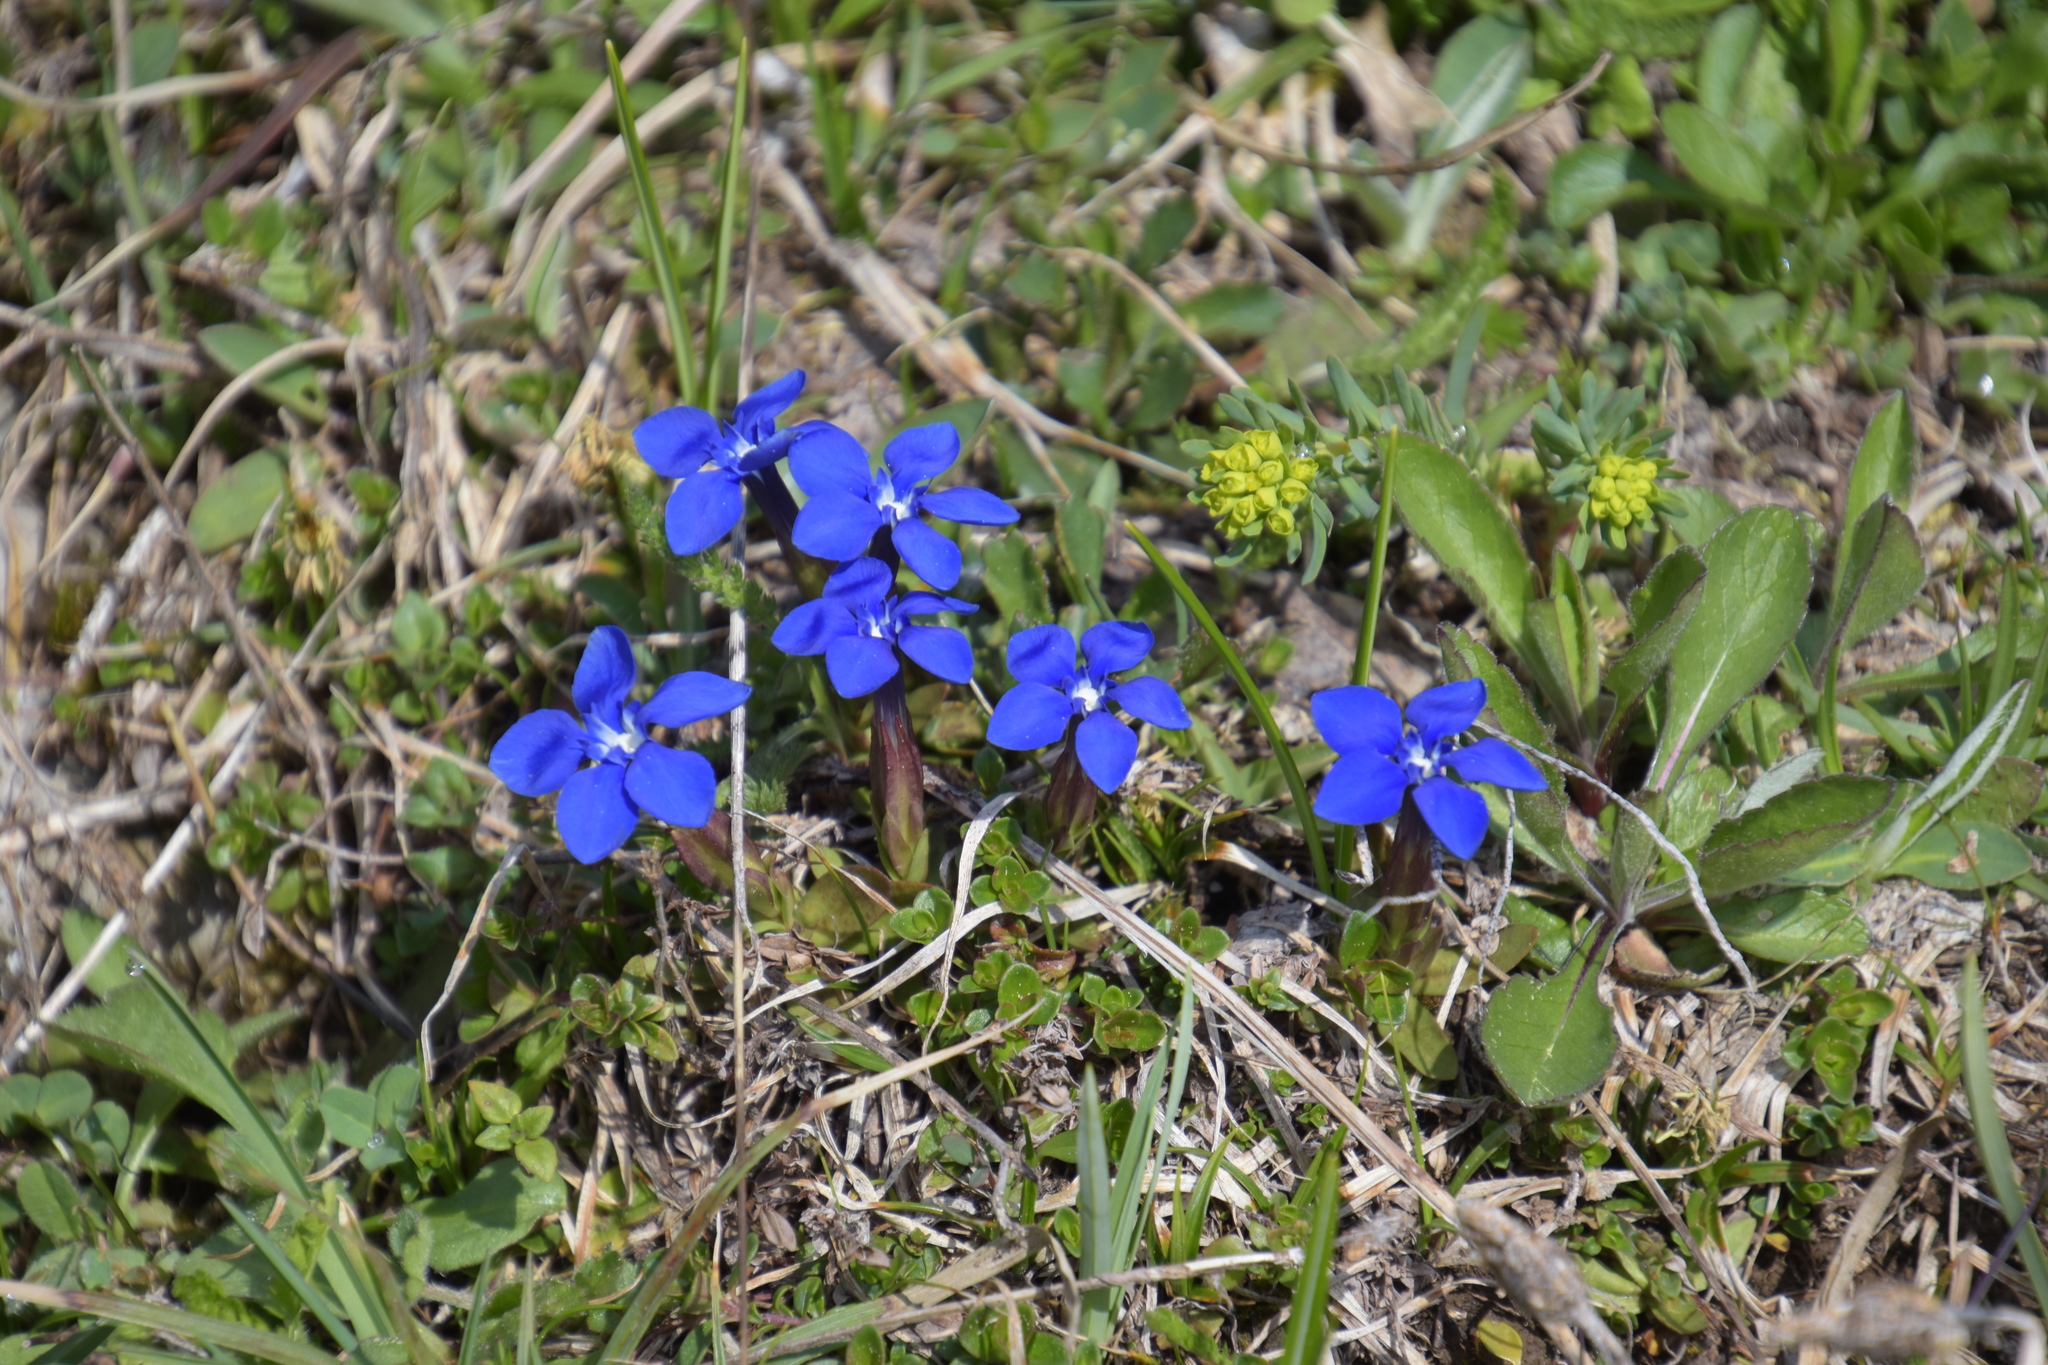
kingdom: Plantae
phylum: Tracheophyta
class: Magnoliopsida
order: Gentianales
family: Gentianaceae
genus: Gentiana
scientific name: Gentiana verna
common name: Spring gentian
